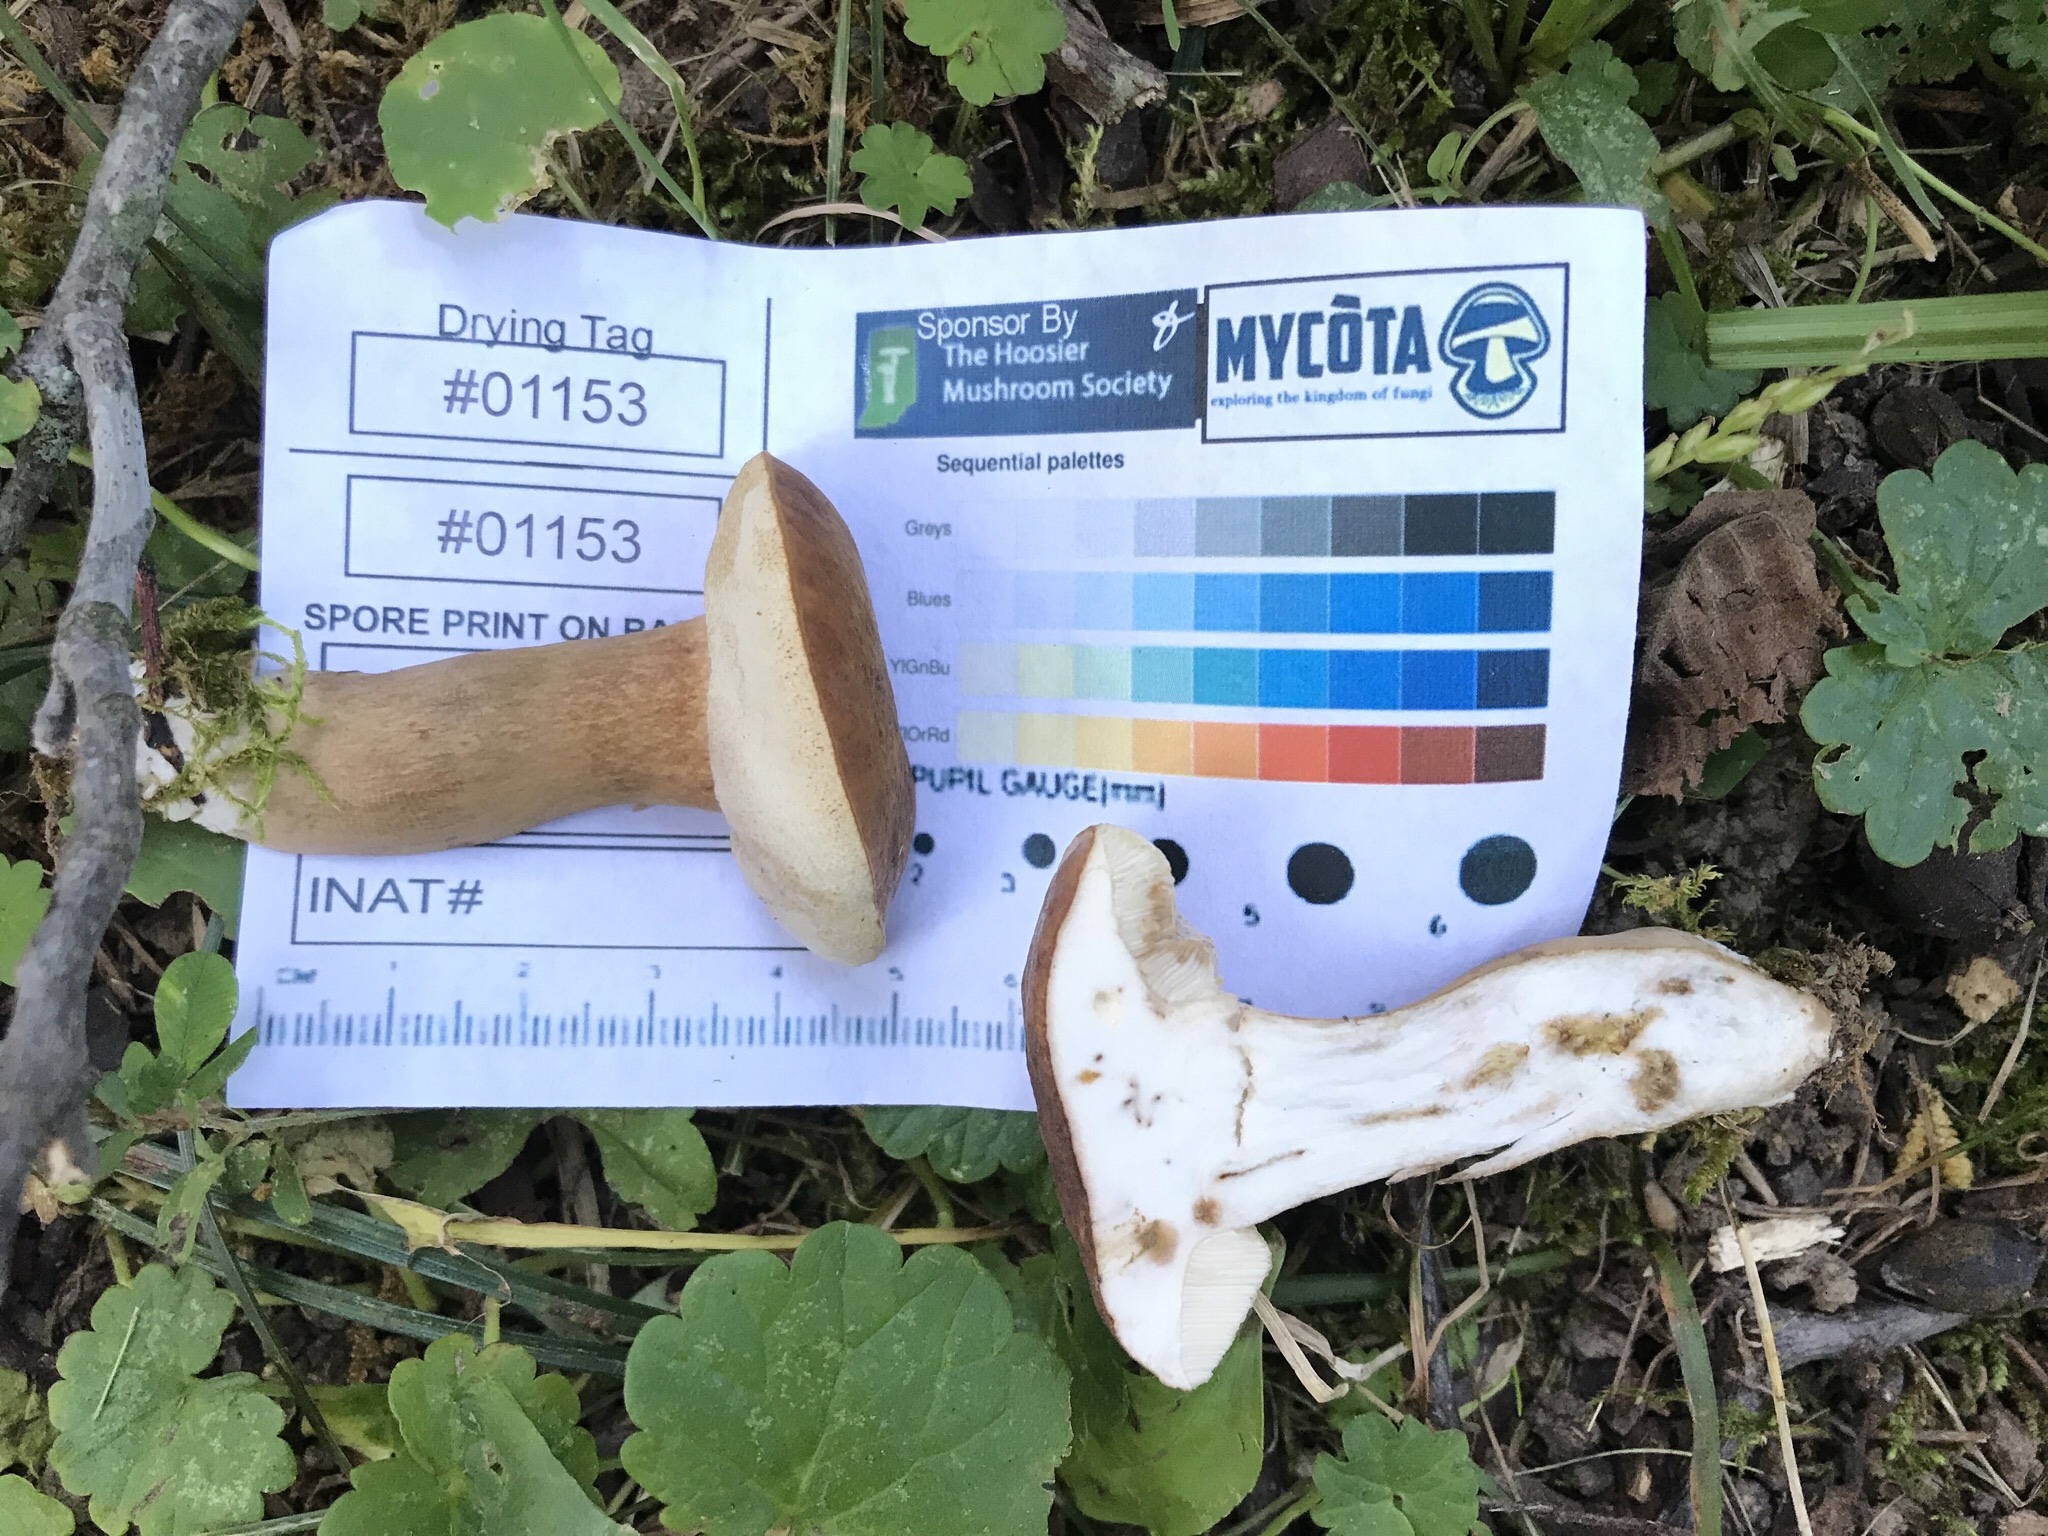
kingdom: Fungi
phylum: Basidiomycota
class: Agaricomycetes
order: Boletales
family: Boletaceae
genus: Tylopilus
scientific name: Tylopilus badiceps
